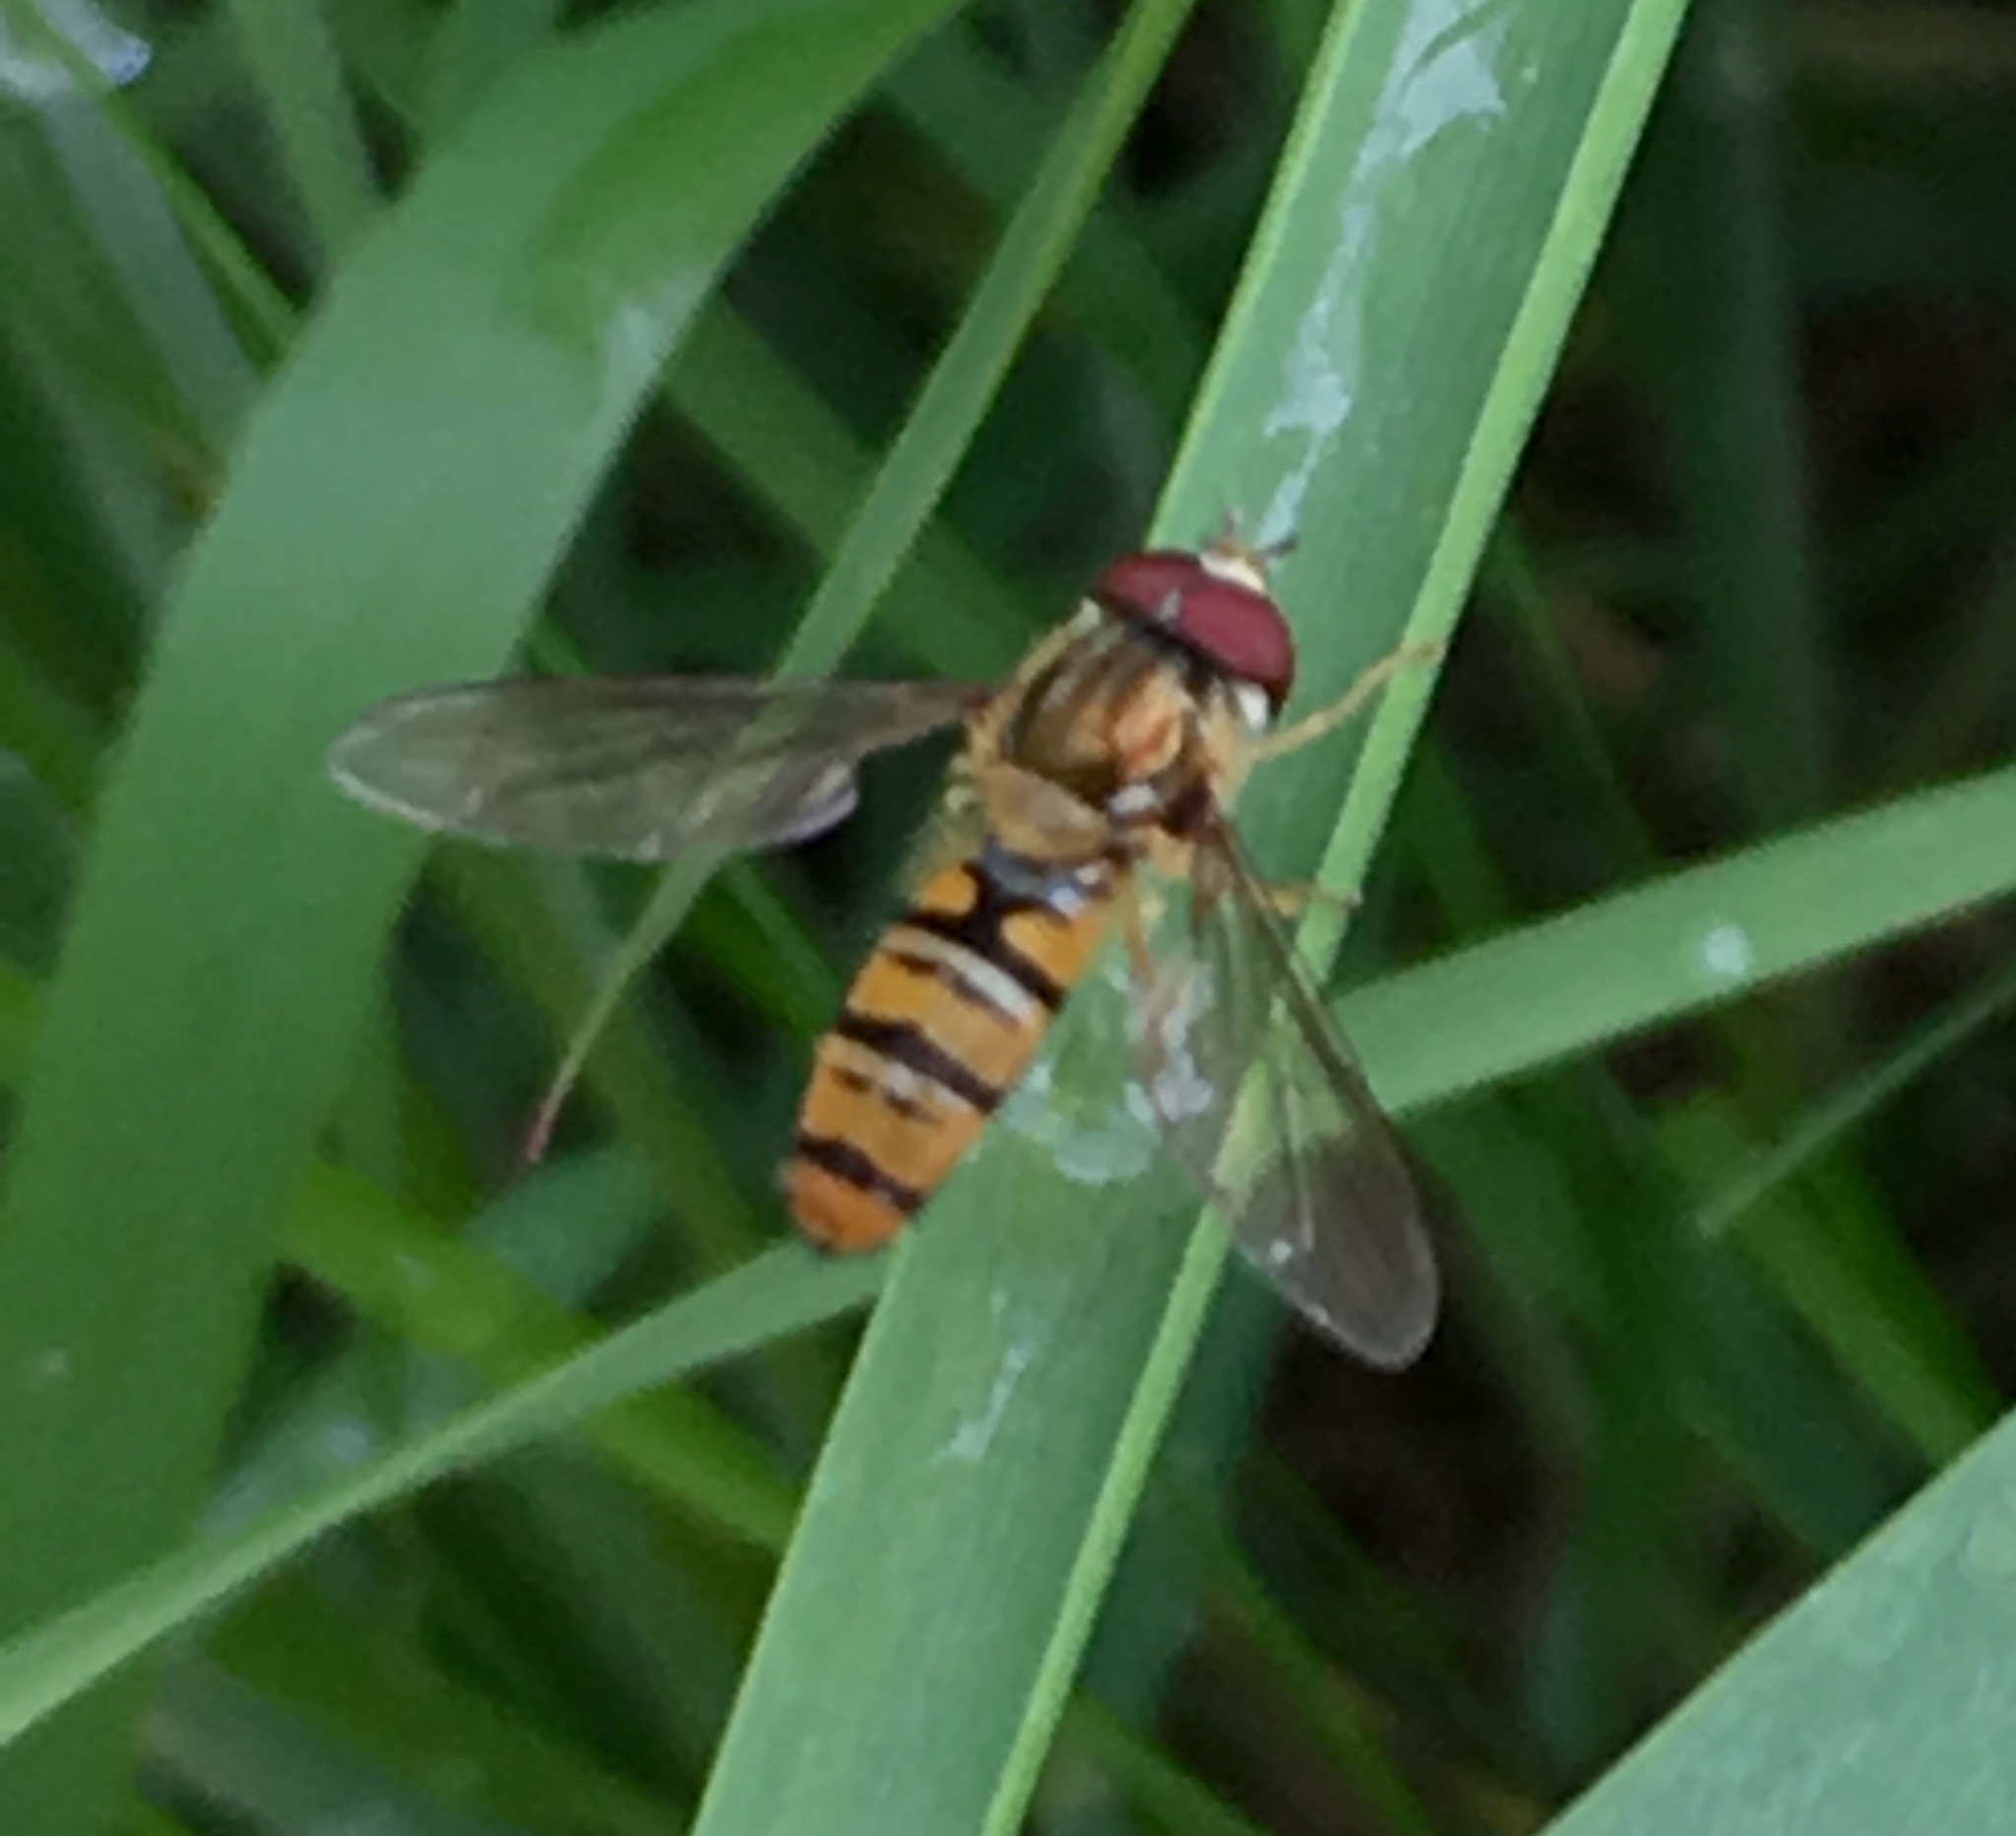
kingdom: Animalia
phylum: Arthropoda
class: Insecta
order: Diptera
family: Syrphidae
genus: Episyrphus
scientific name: Episyrphus balteatus
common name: Marmalade hoverfly
